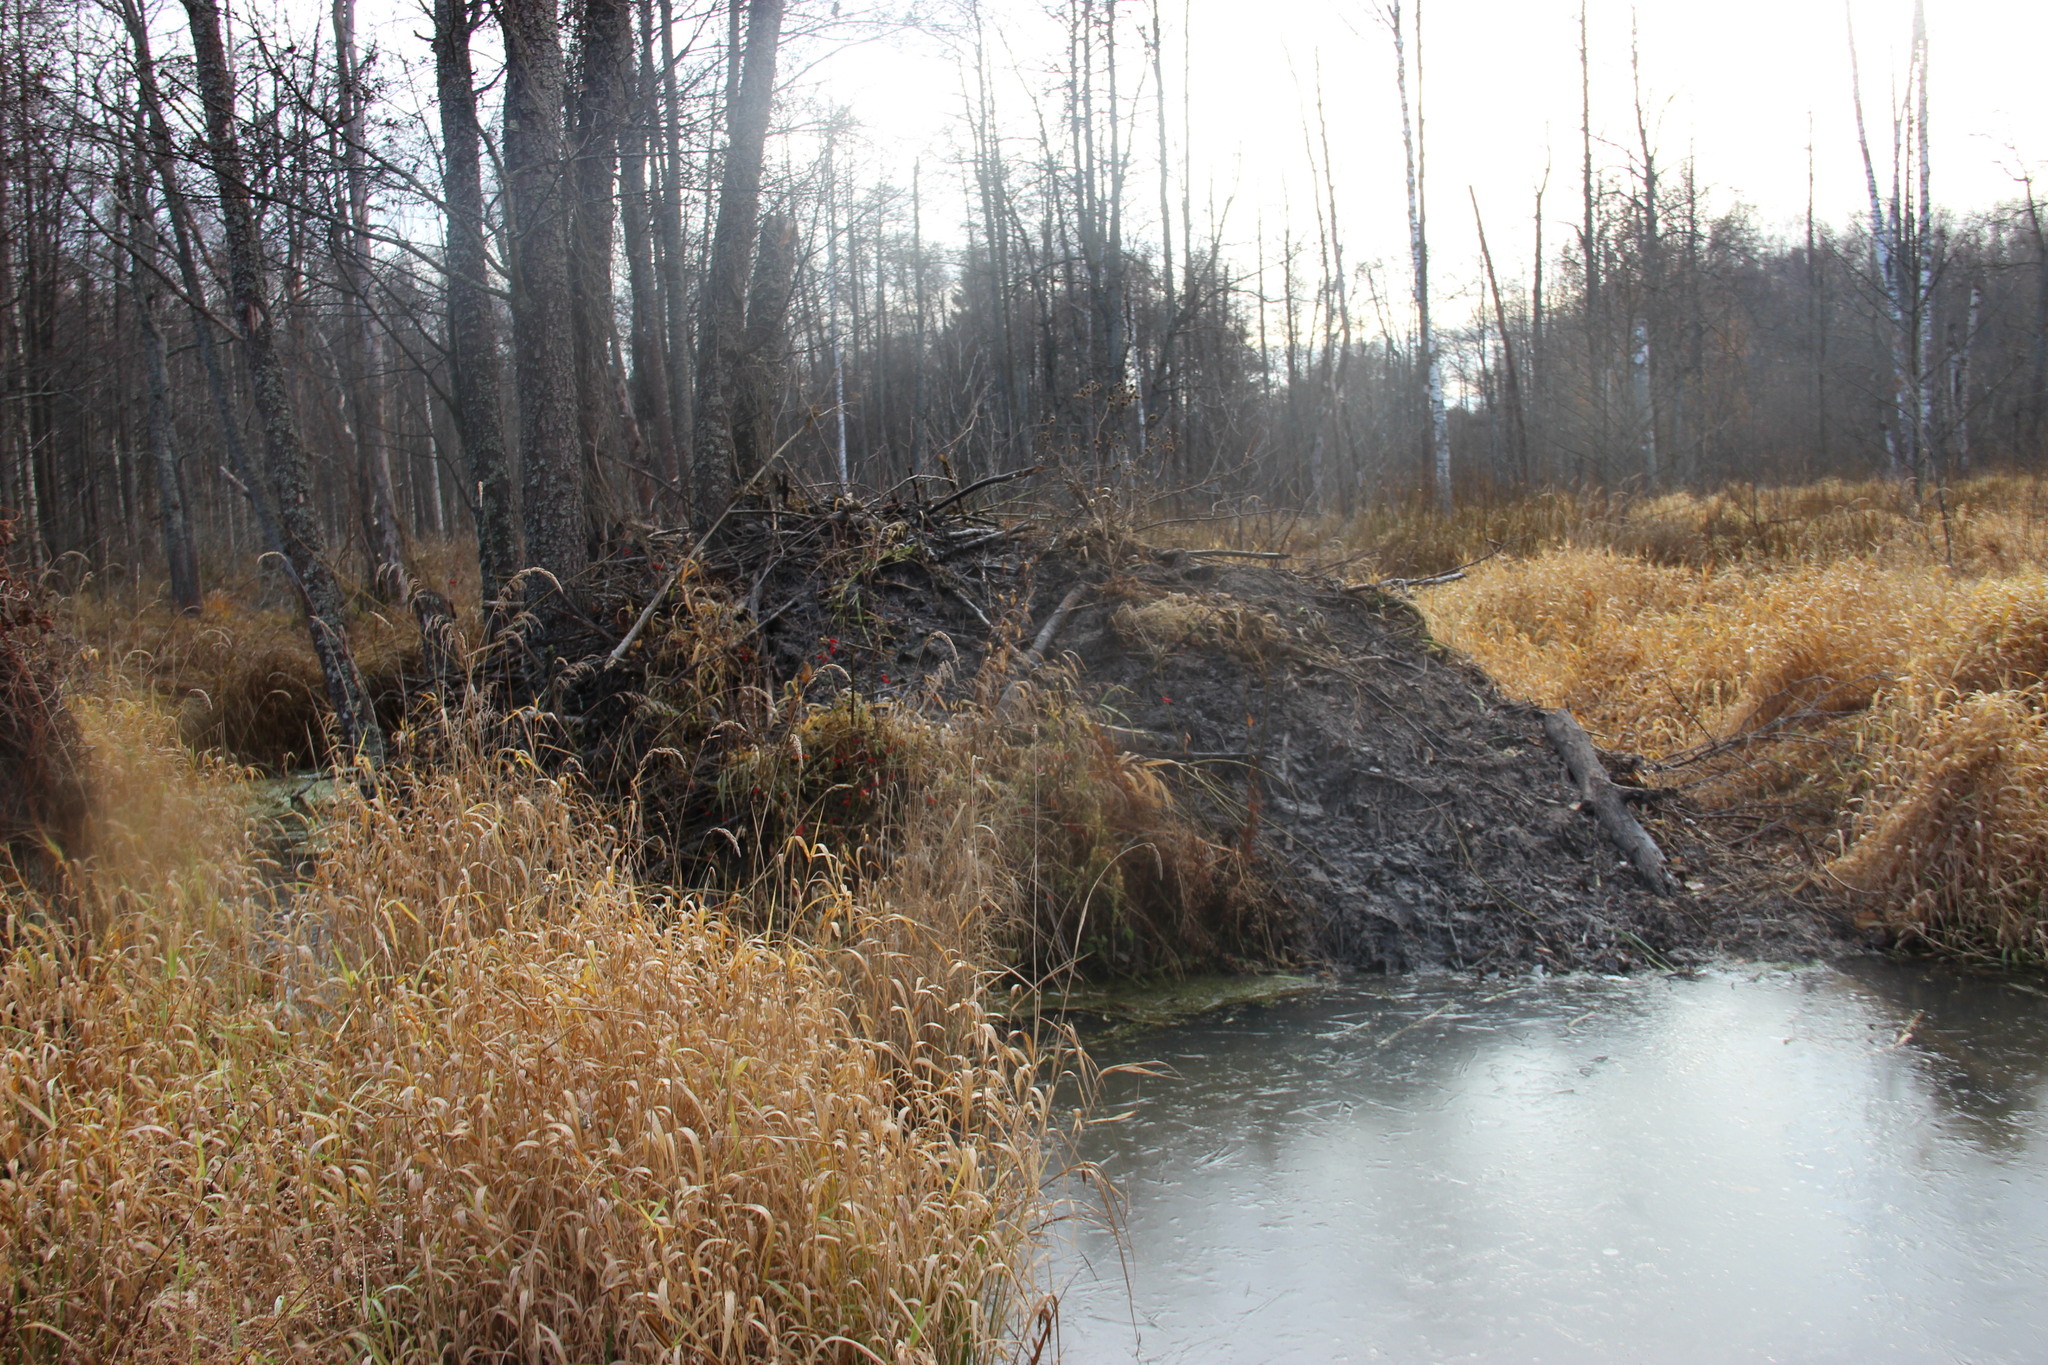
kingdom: Animalia
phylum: Chordata
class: Mammalia
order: Rodentia
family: Castoridae
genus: Castor
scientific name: Castor fiber
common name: Eurasian beaver
